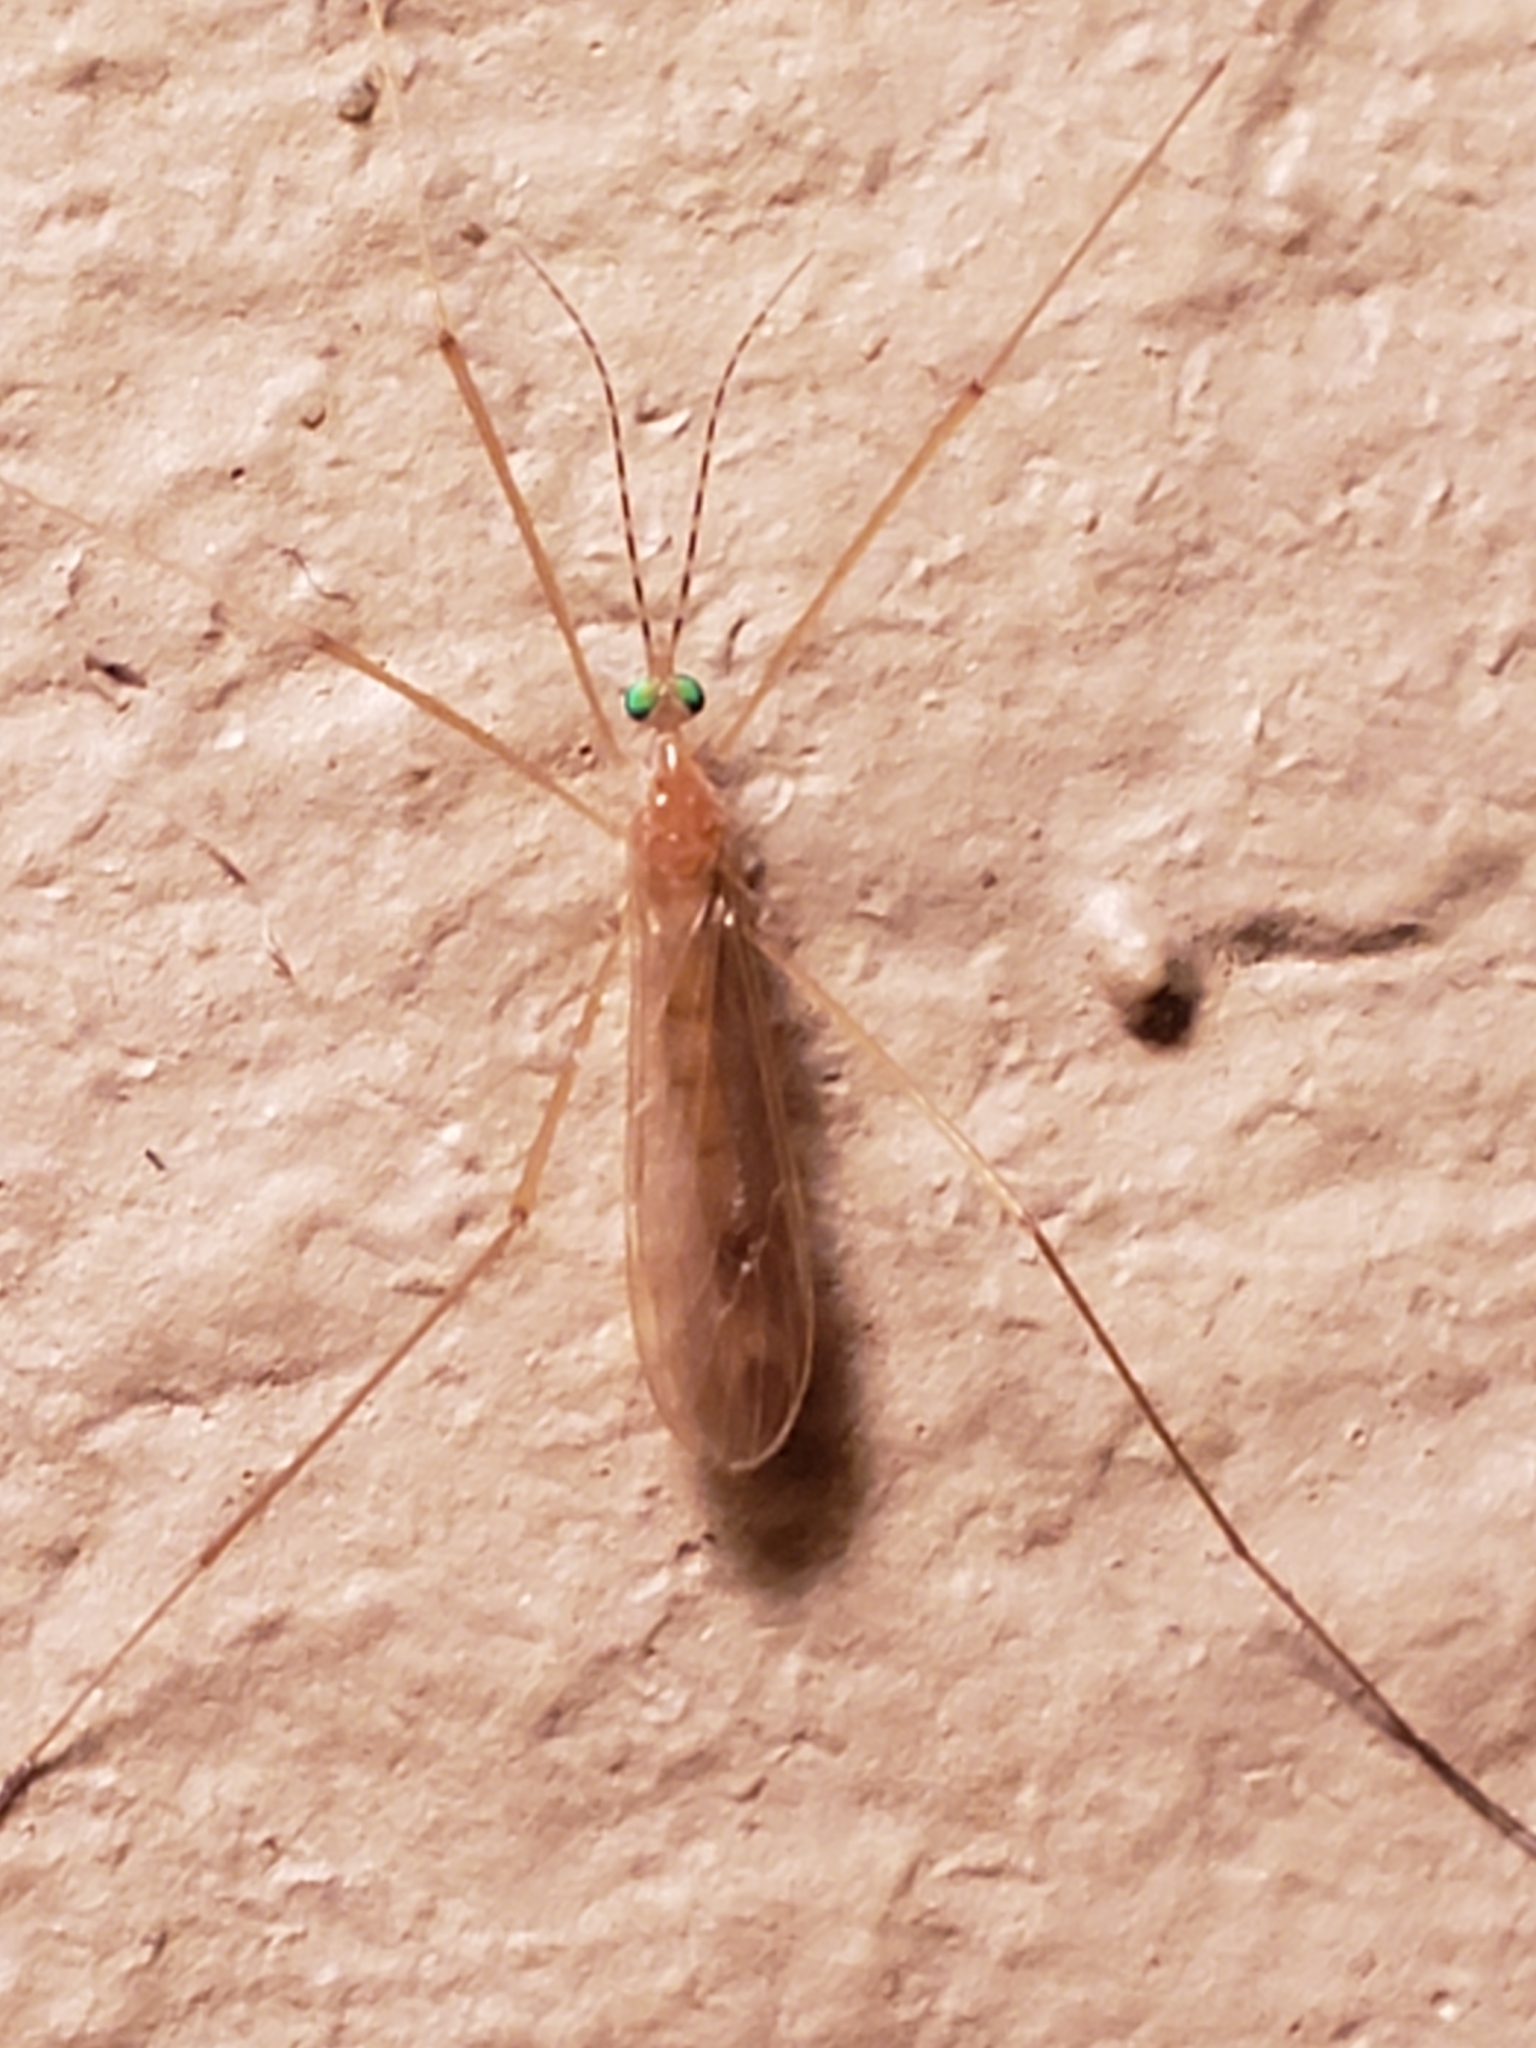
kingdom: Animalia
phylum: Arthropoda
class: Insecta
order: Diptera
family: Limoniidae
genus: Atarba
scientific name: Atarba picticornis
